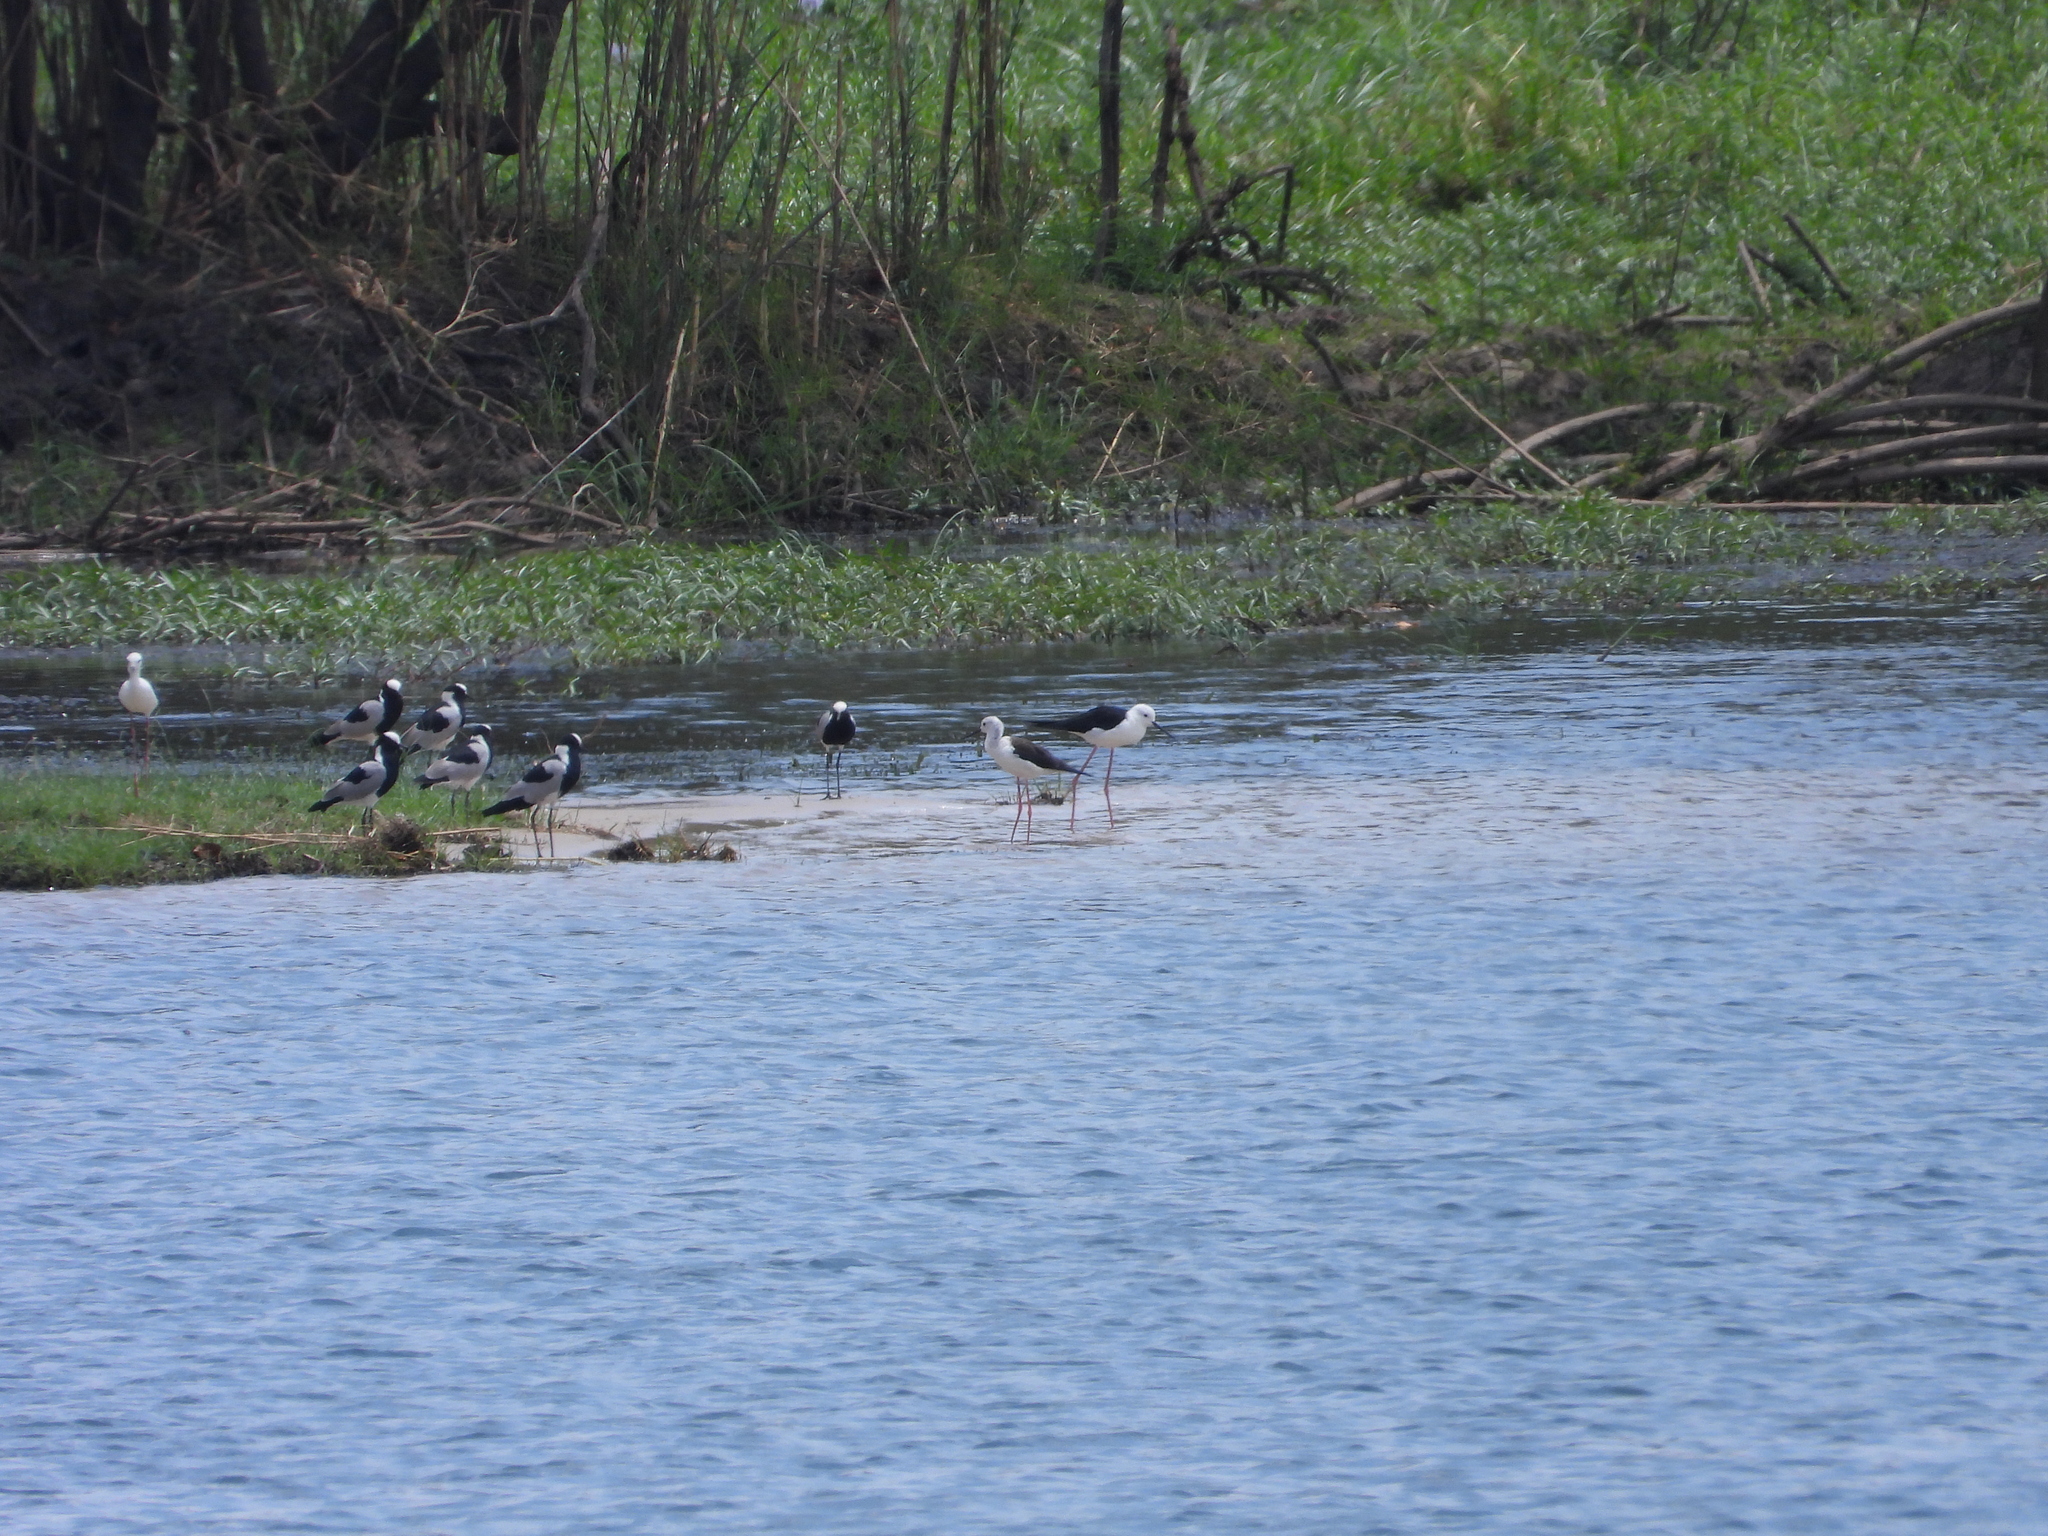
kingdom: Animalia
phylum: Chordata
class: Aves
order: Charadriiformes
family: Recurvirostridae
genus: Himantopus
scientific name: Himantopus himantopus
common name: Black-winged stilt
